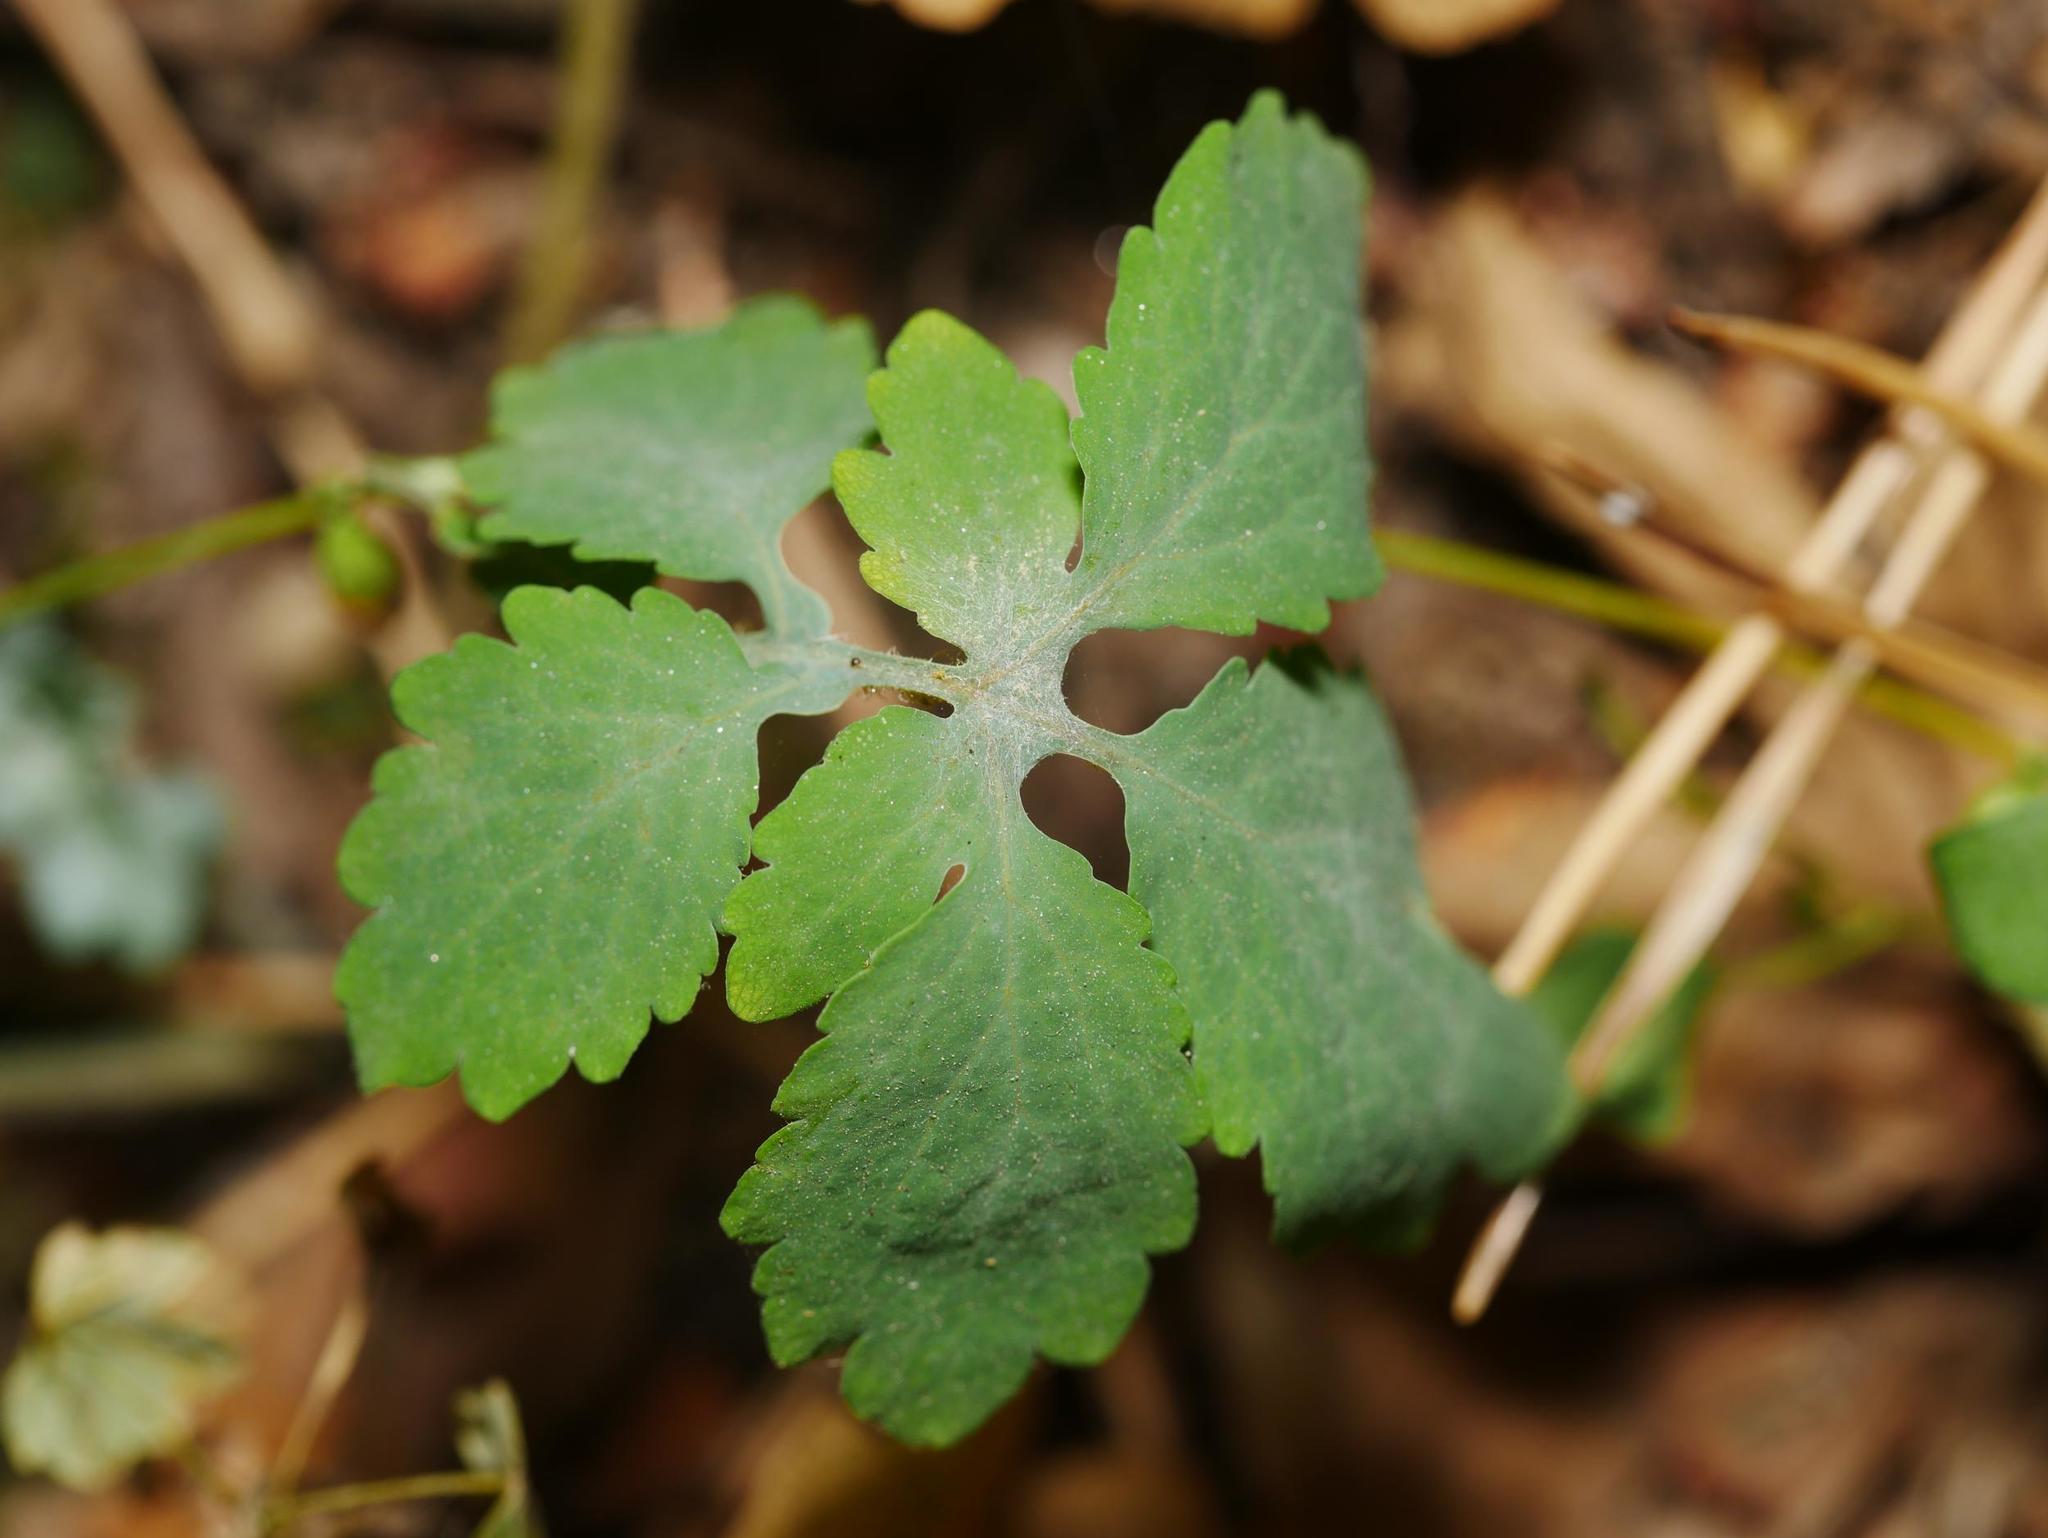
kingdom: Plantae
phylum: Tracheophyta
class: Magnoliopsida
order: Ranunculales
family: Papaveraceae
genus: Chelidonium
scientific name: Chelidonium majus
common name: Greater celandine
